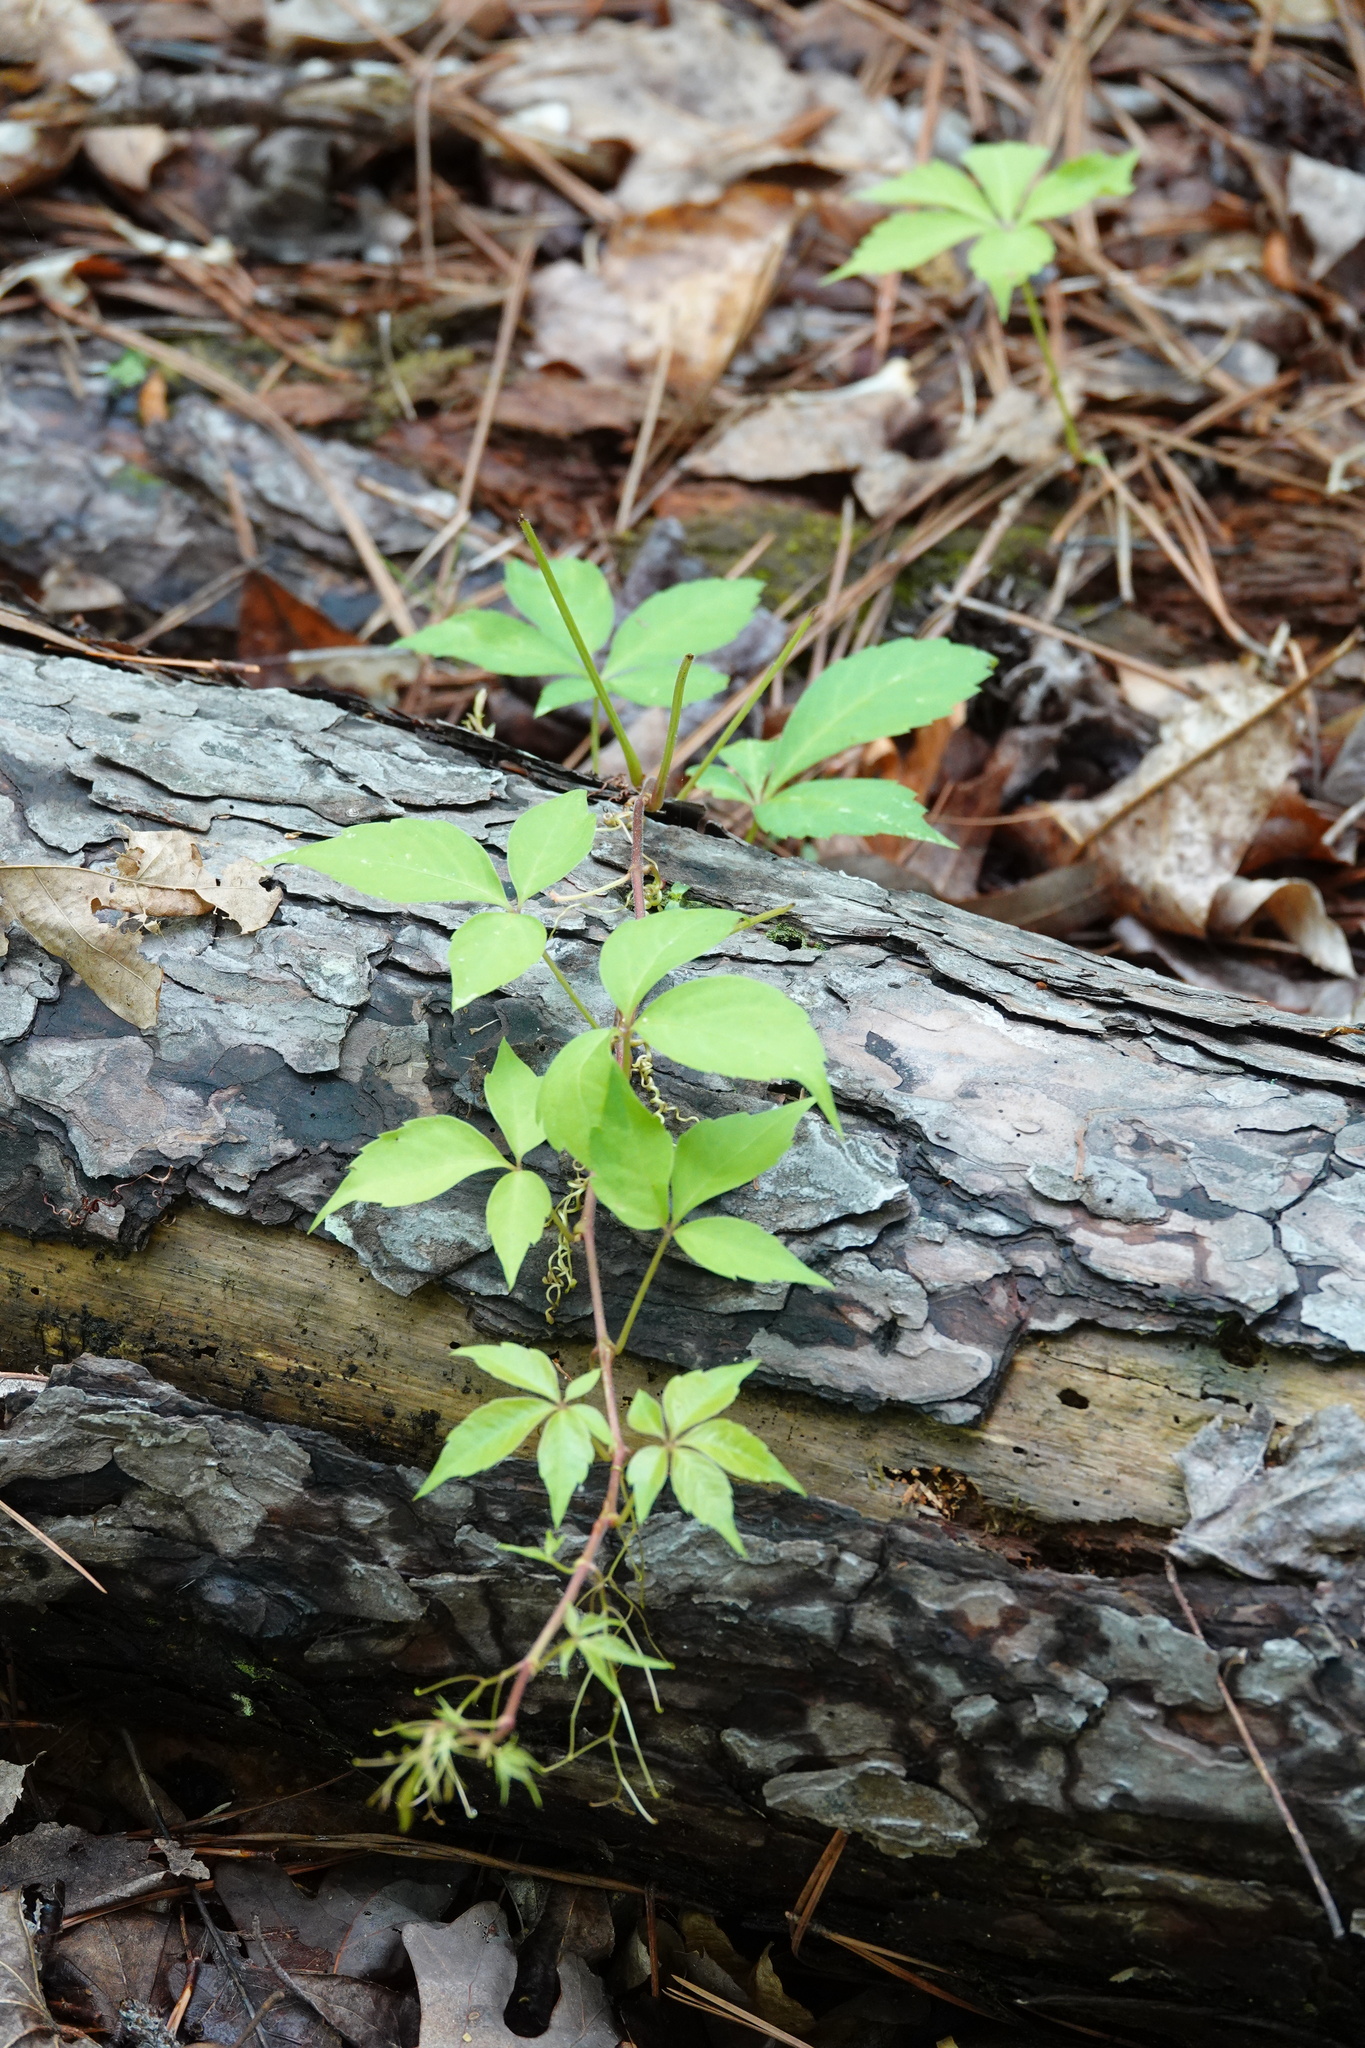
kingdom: Plantae
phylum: Tracheophyta
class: Magnoliopsida
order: Vitales
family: Vitaceae
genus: Parthenocissus
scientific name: Parthenocissus quinquefolia
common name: Virginia-creeper
